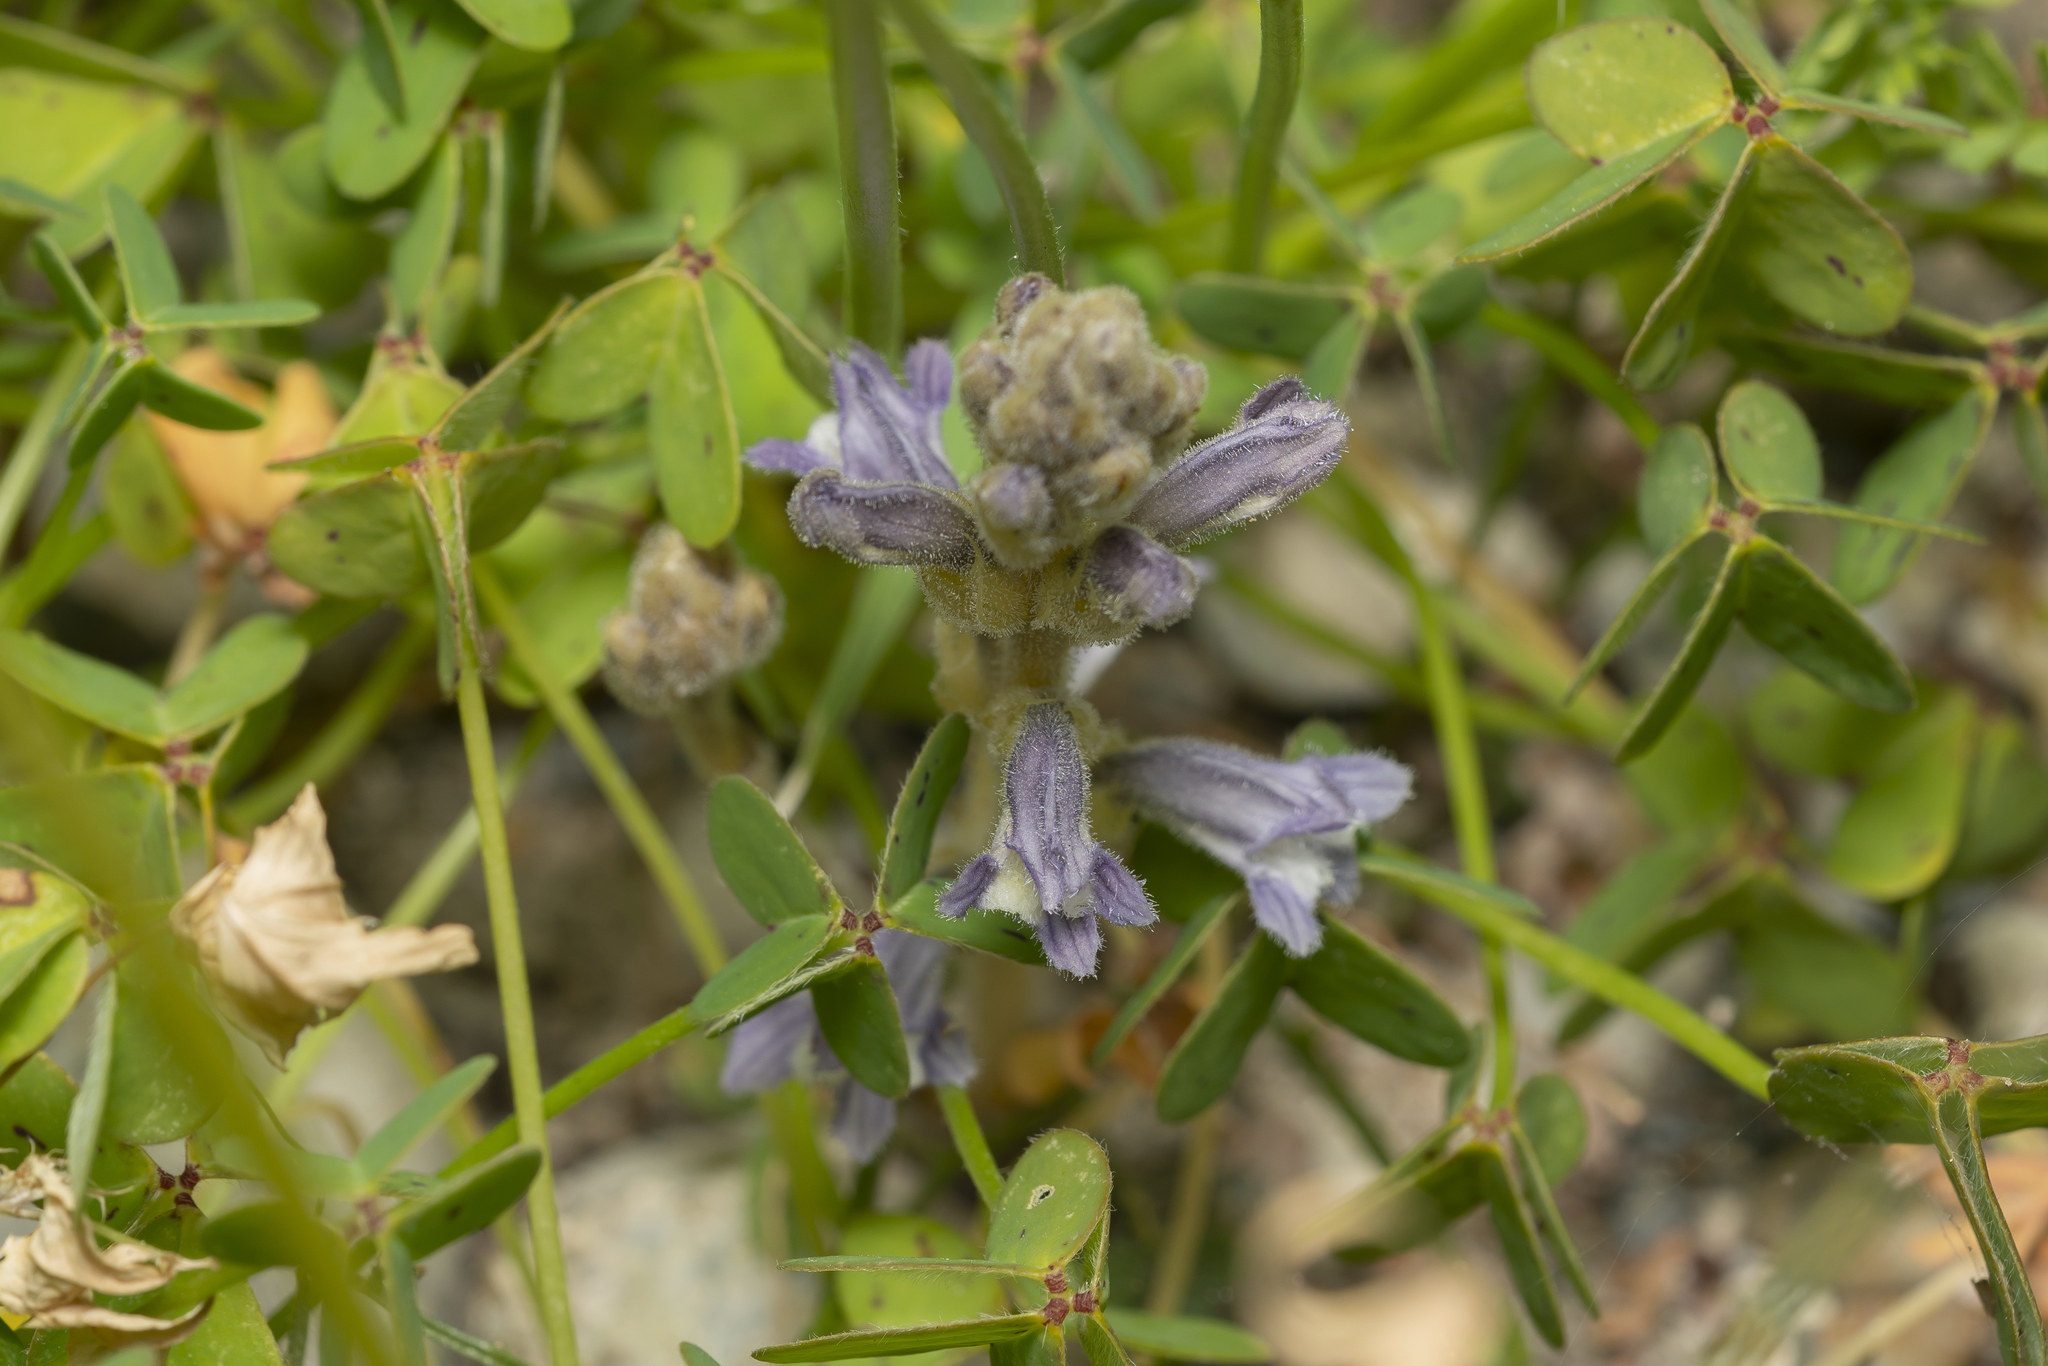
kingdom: Plantae
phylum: Tracheophyta
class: Magnoliopsida
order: Lamiales
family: Orobanchaceae
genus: Phelipanche
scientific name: Phelipanche mutelii
